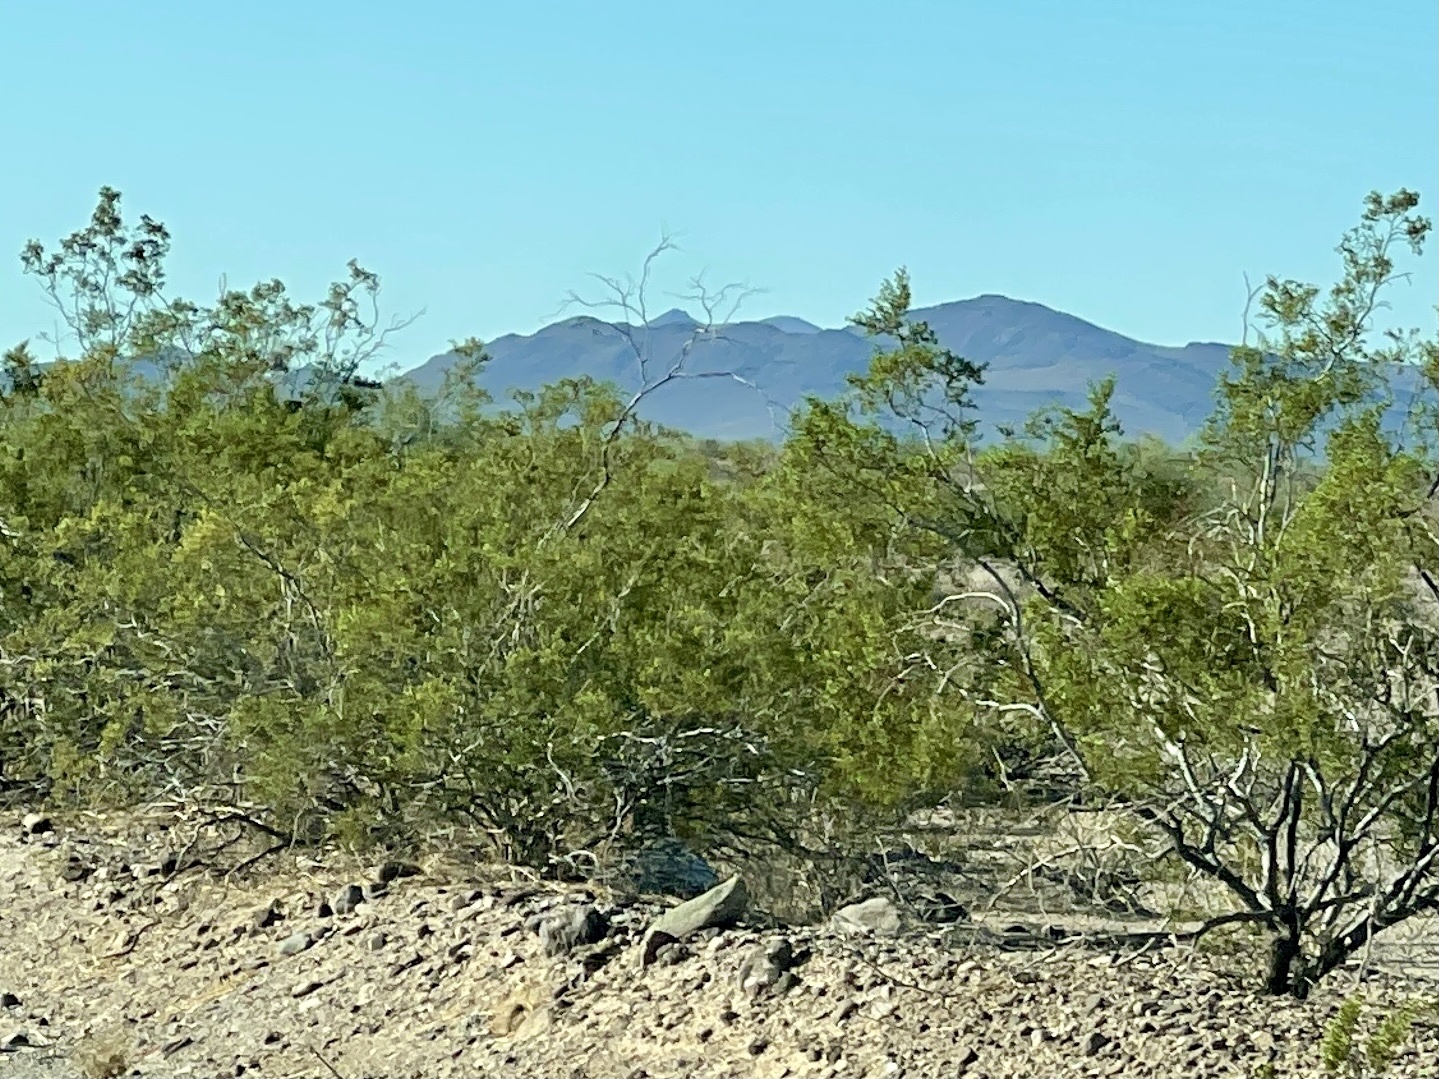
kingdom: Plantae
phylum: Tracheophyta
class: Magnoliopsida
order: Zygophyllales
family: Zygophyllaceae
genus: Larrea
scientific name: Larrea tridentata
